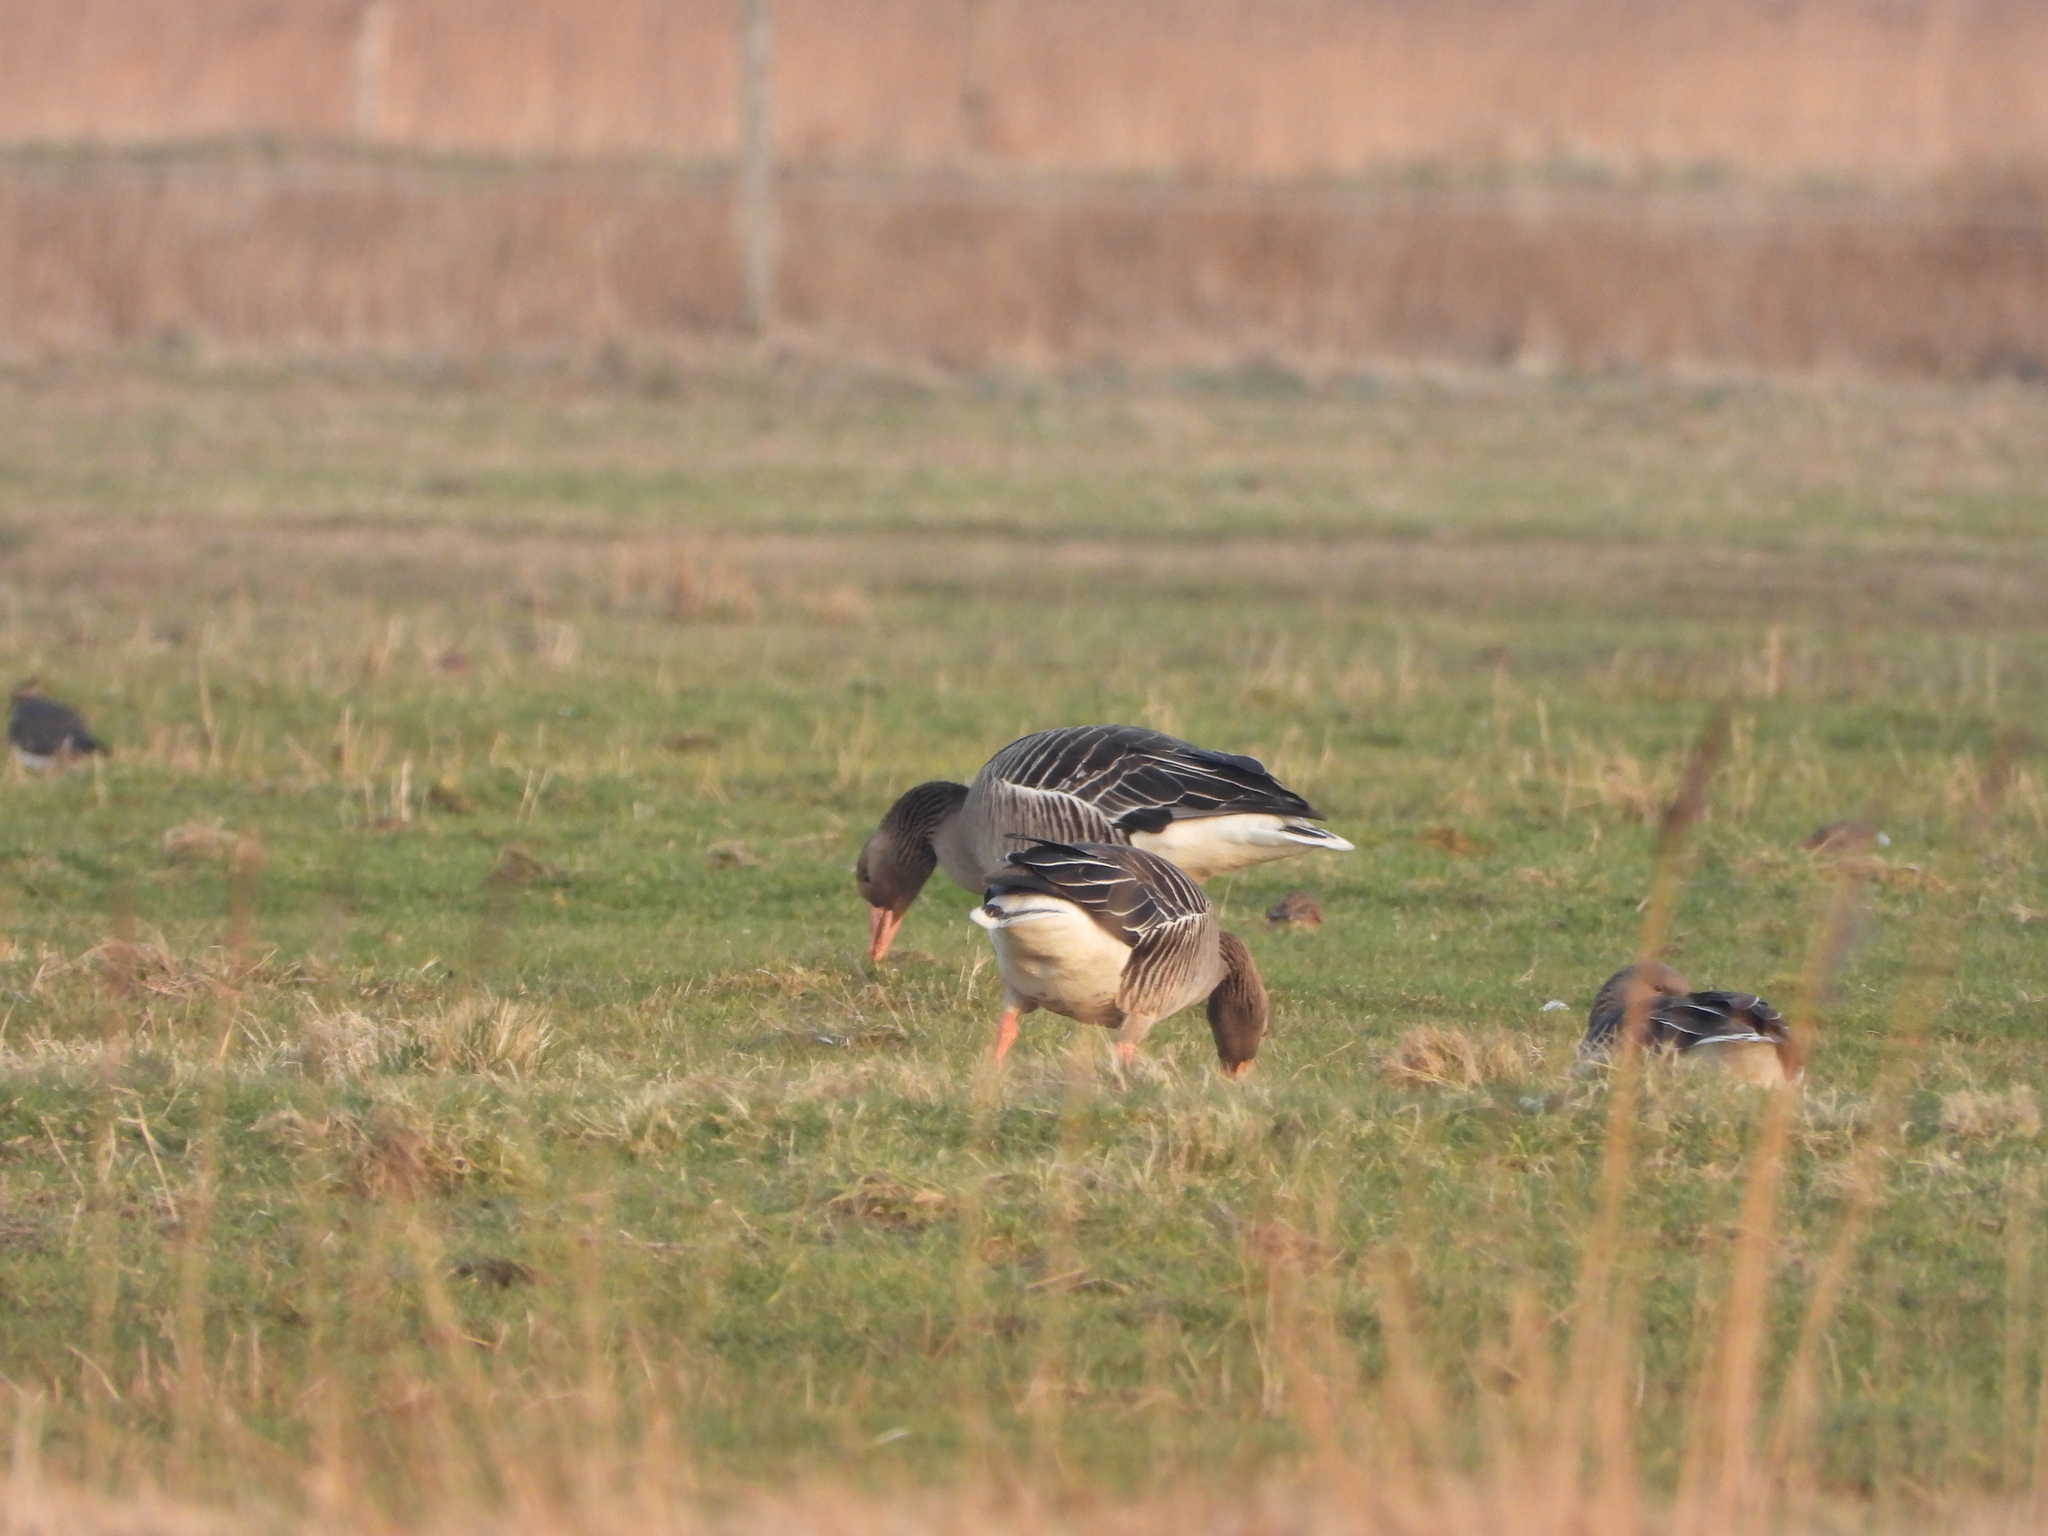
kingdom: Animalia
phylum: Chordata
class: Aves
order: Anseriformes
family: Anatidae
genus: Anser
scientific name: Anser anser
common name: Greylag goose
